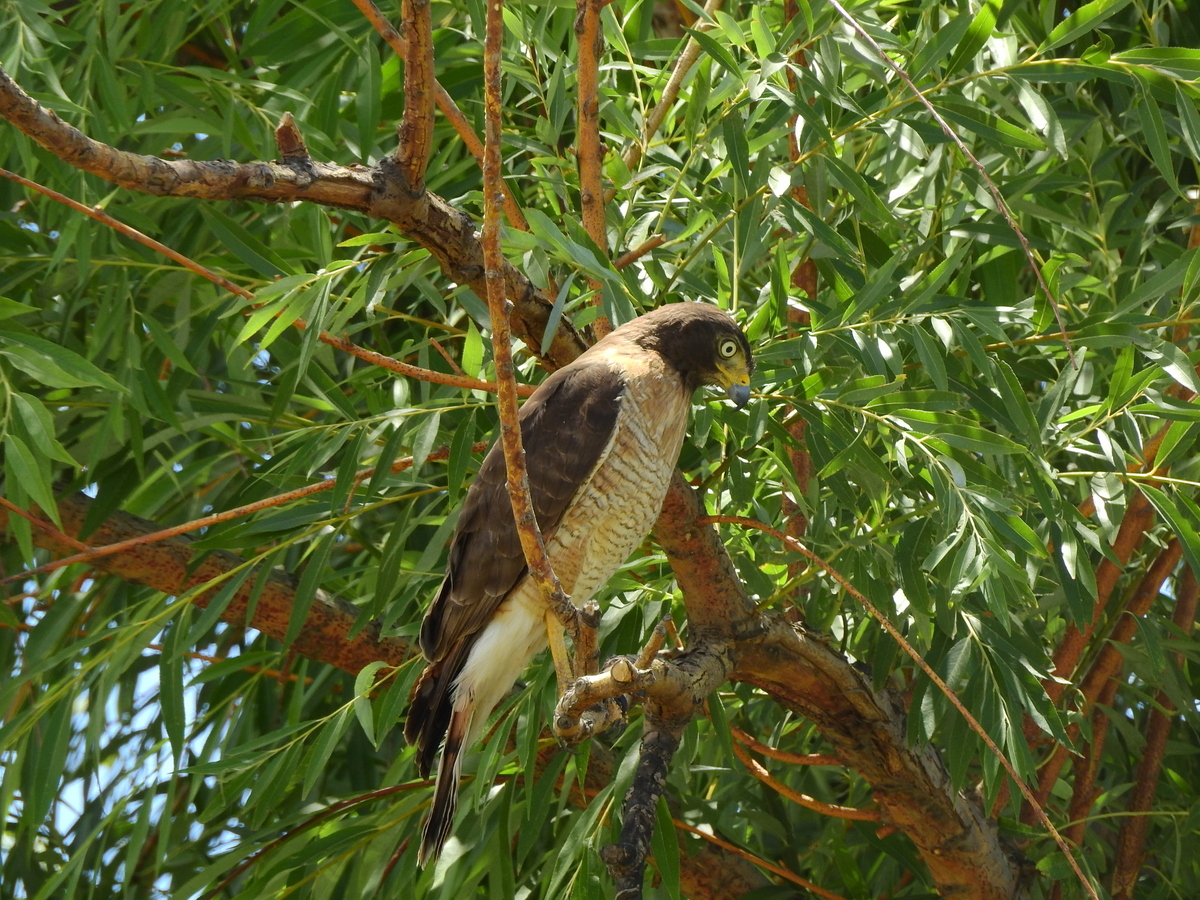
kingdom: Animalia
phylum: Chordata
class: Aves
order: Accipitriformes
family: Accipitridae
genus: Rupornis
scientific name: Rupornis magnirostris
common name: Roadside hawk
